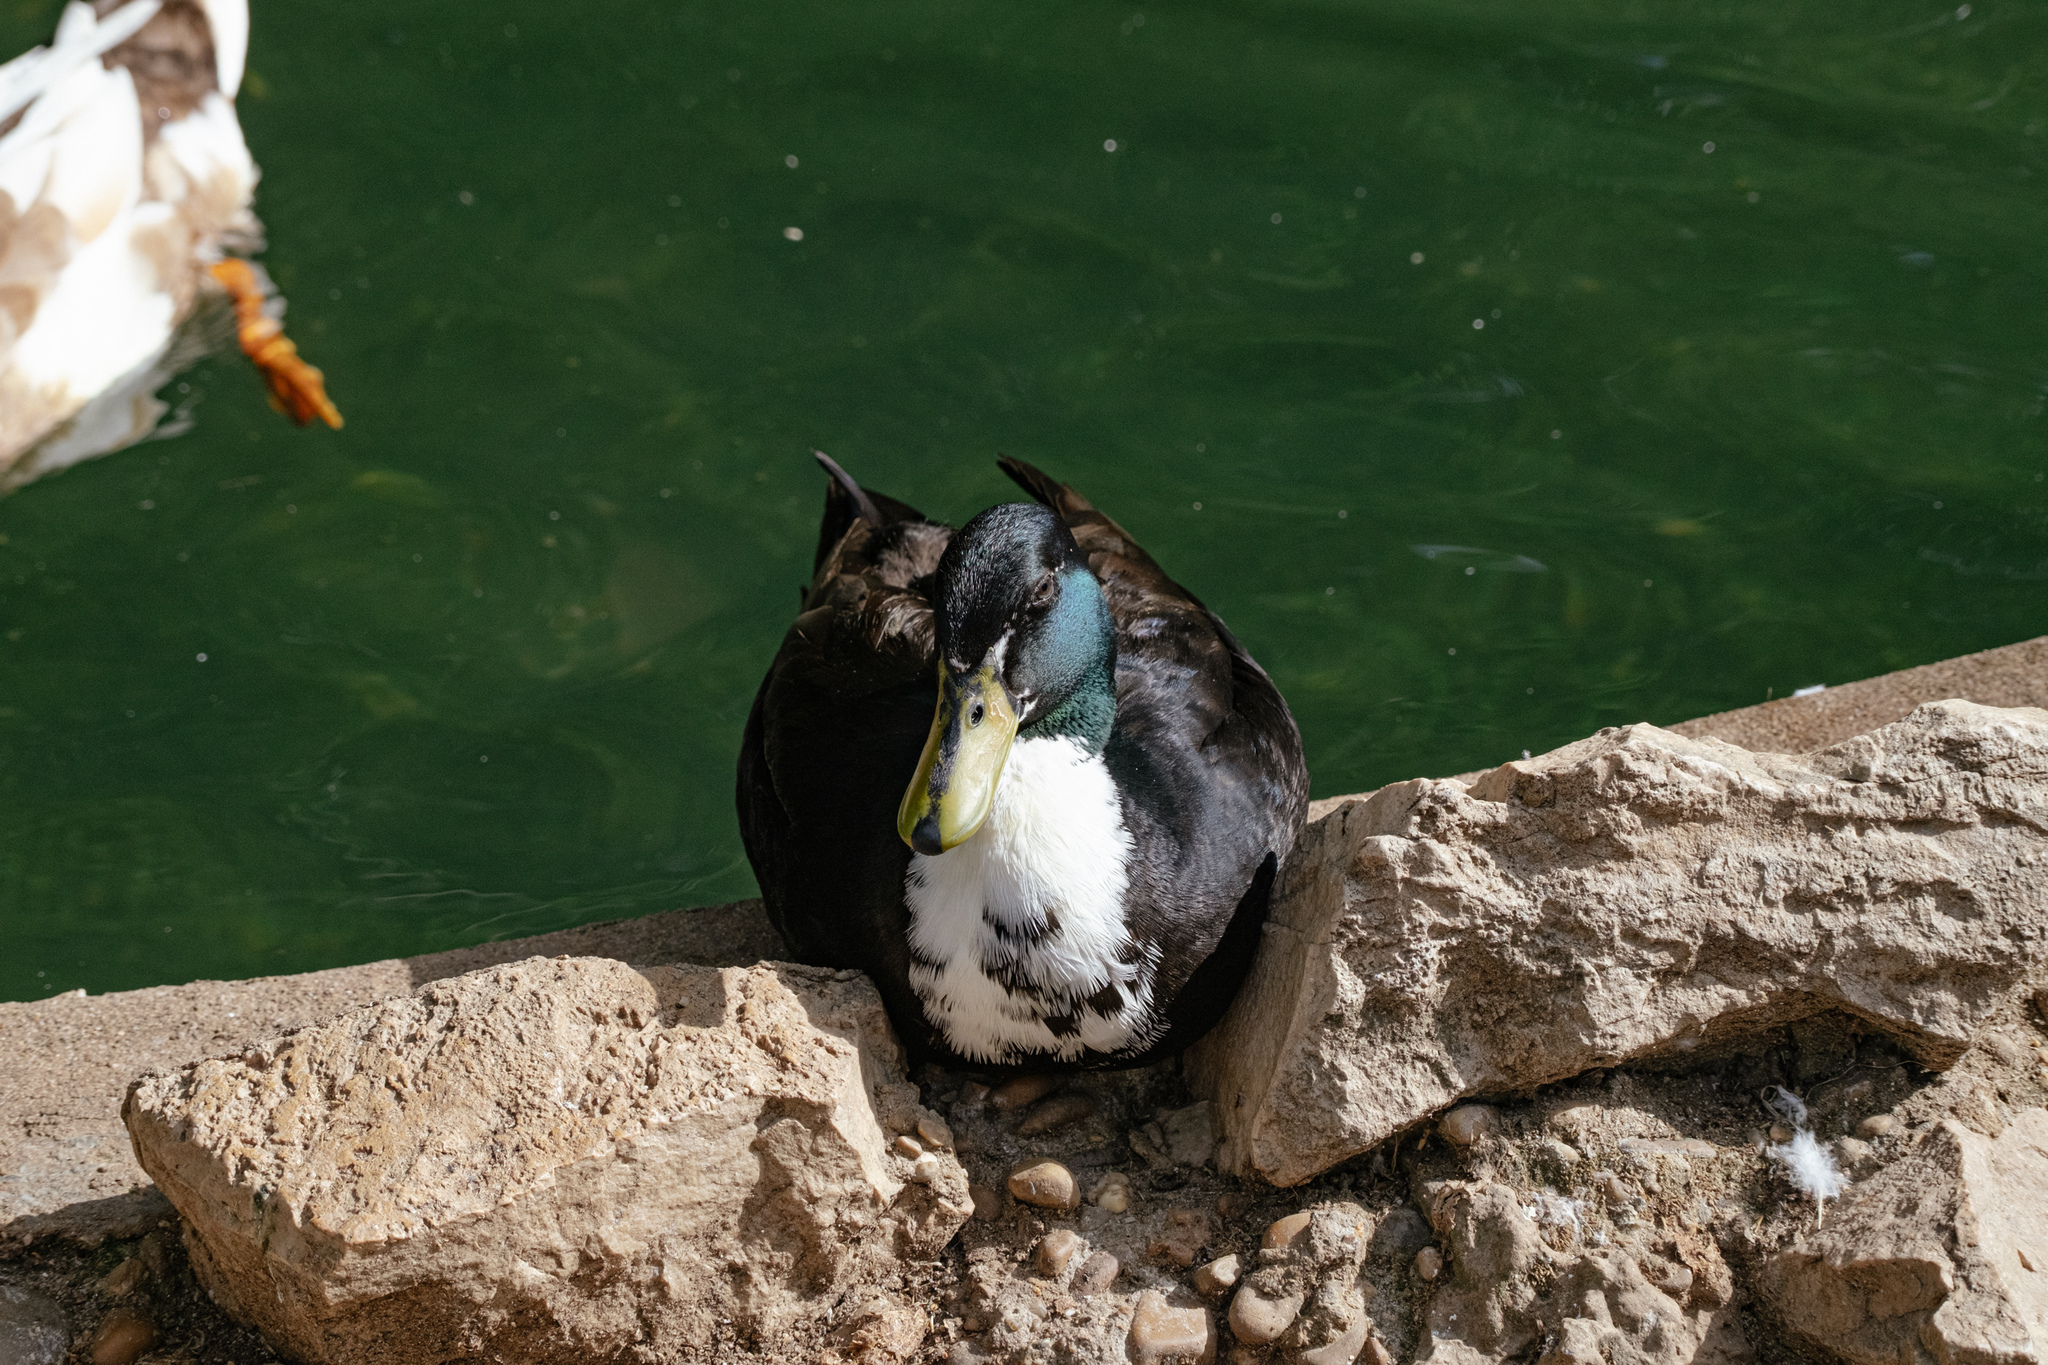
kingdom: Animalia
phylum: Chordata
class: Aves
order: Anseriformes
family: Anatidae
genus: Anas
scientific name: Anas platyrhynchos
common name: Mallard
